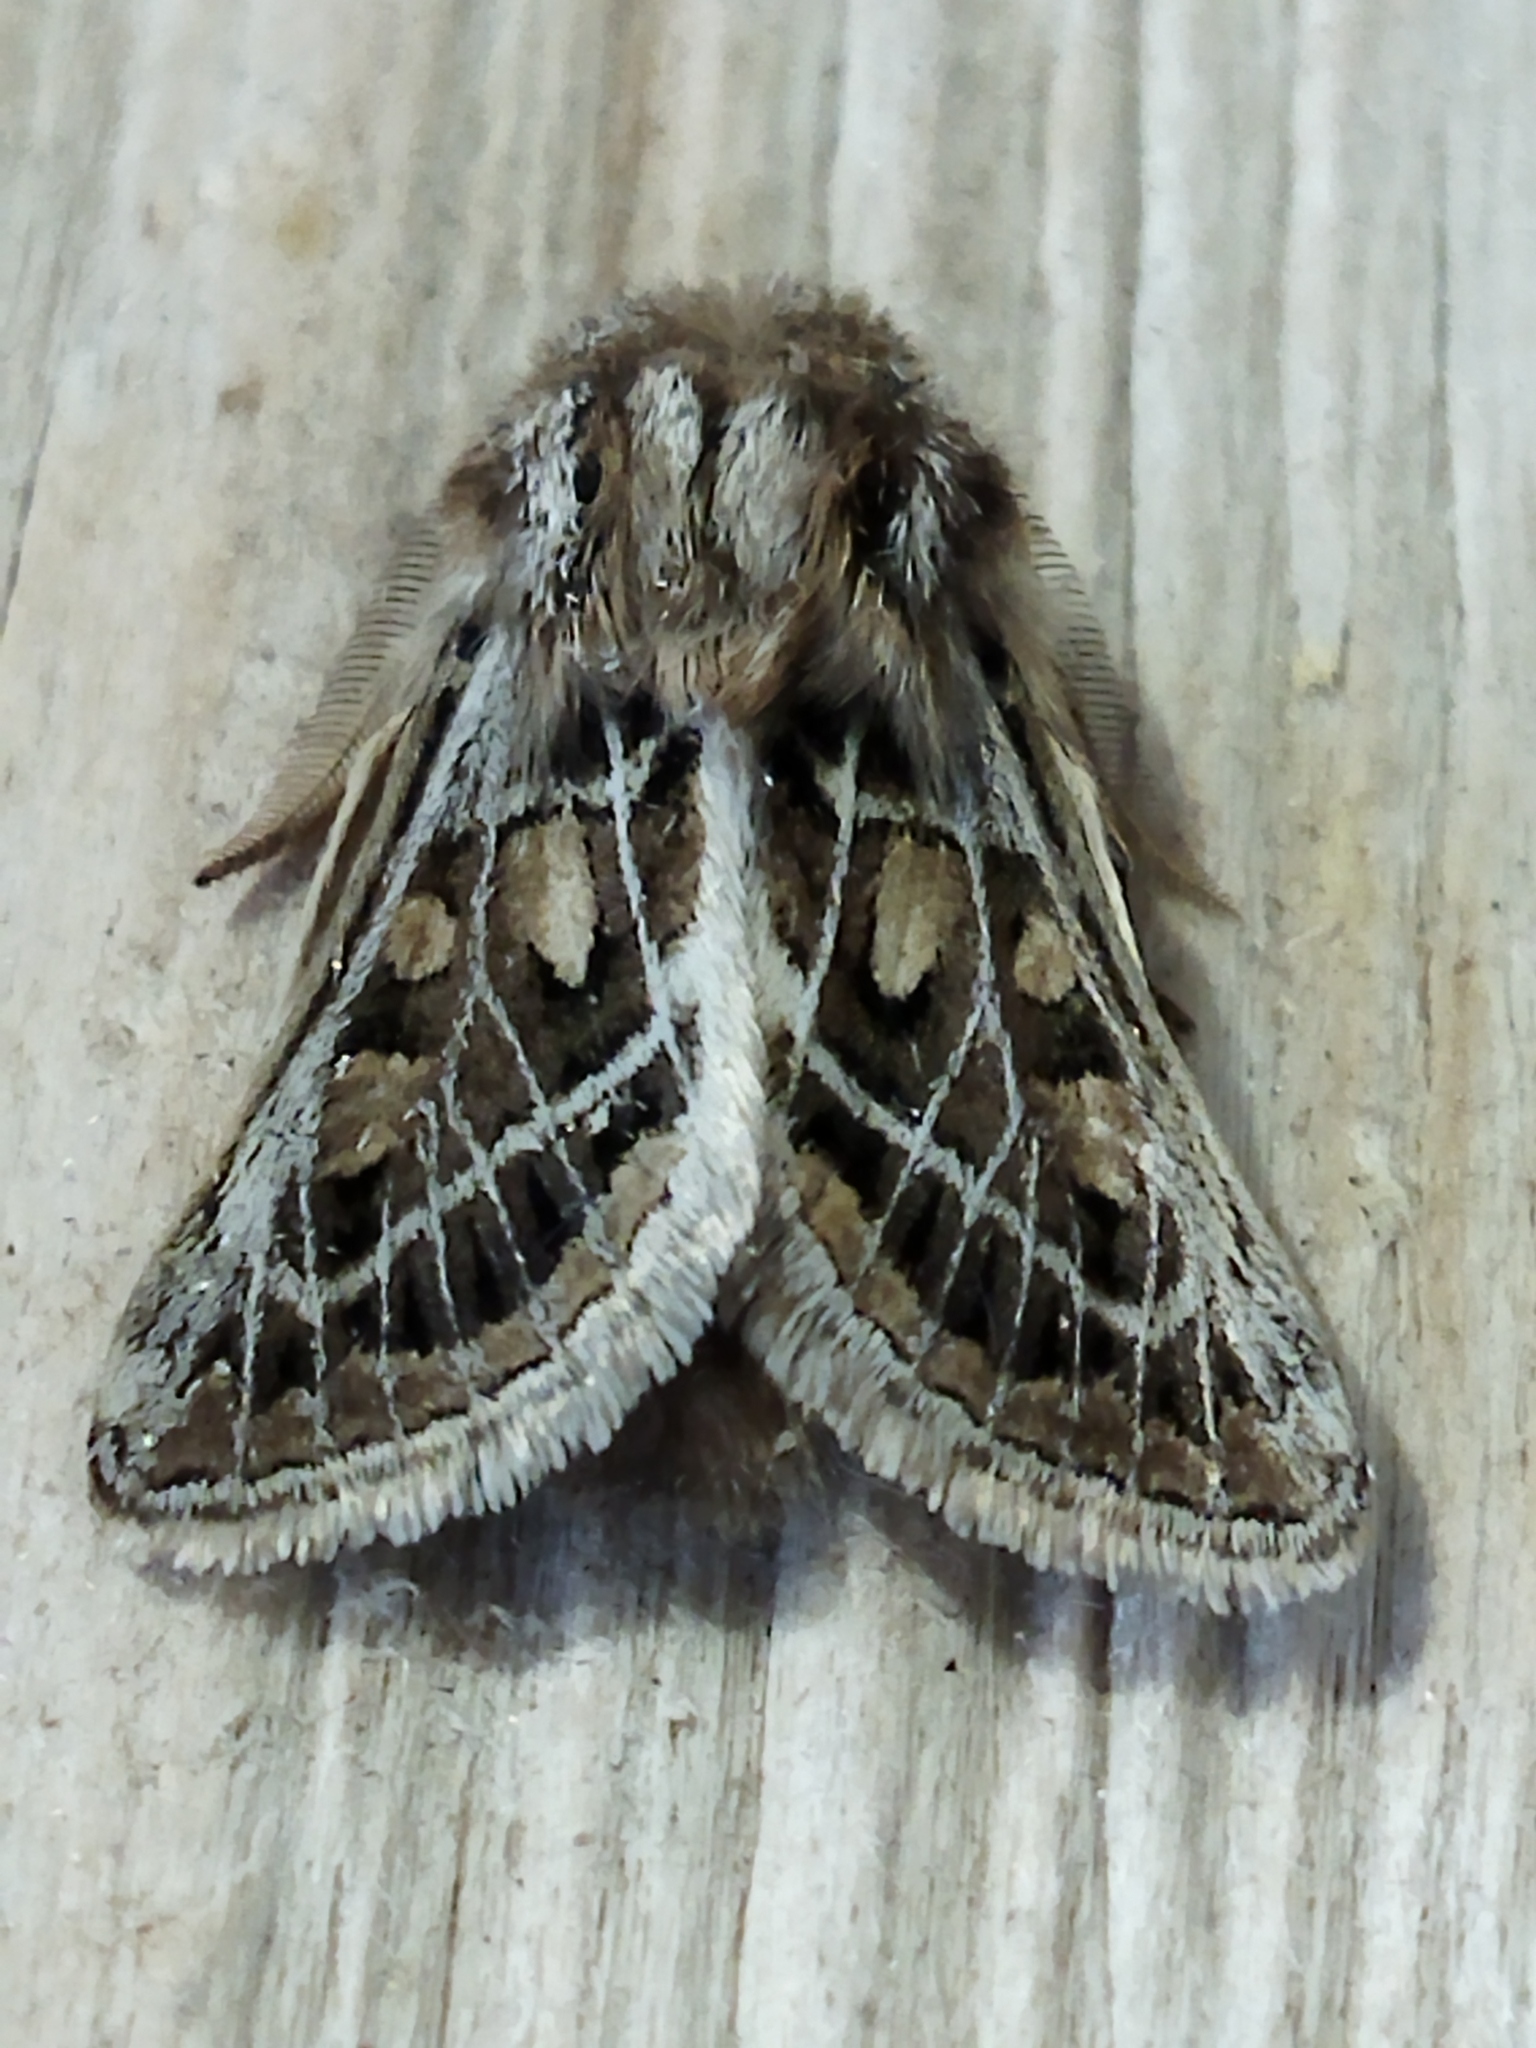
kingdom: Animalia
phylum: Arthropoda
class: Insecta
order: Lepidoptera
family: Noctuidae
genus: Ulochlaena
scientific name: Ulochlaena hirta
